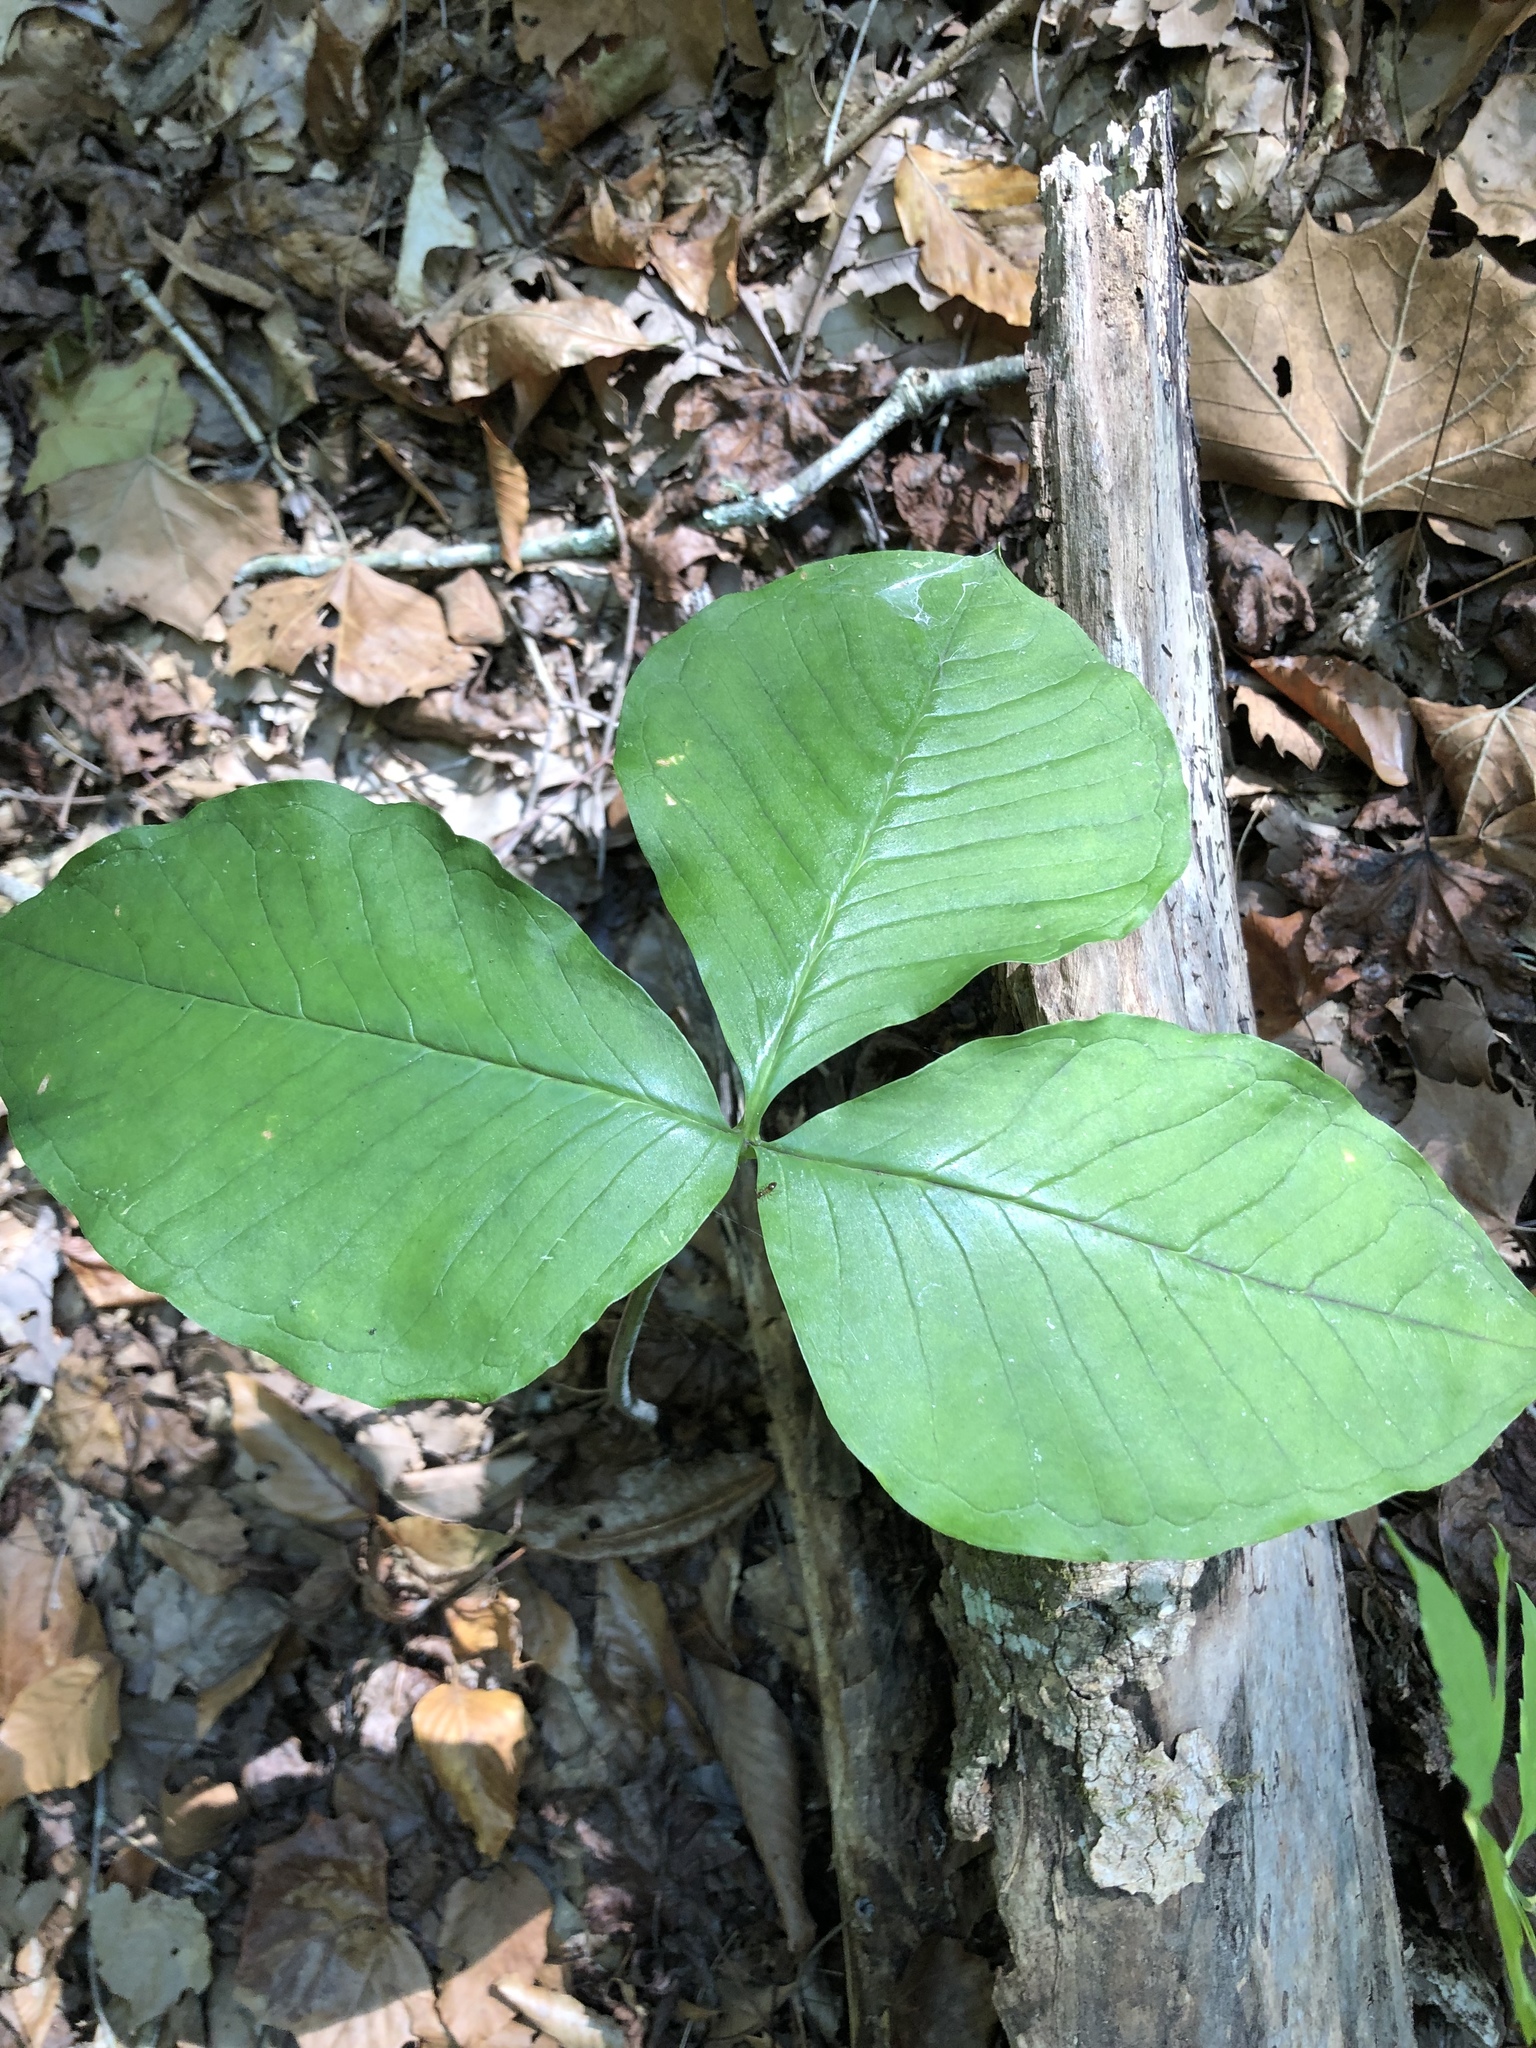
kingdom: Plantae
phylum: Tracheophyta
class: Liliopsida
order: Alismatales
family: Araceae
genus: Arisaema
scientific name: Arisaema triphyllum
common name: Jack-in-the-pulpit
